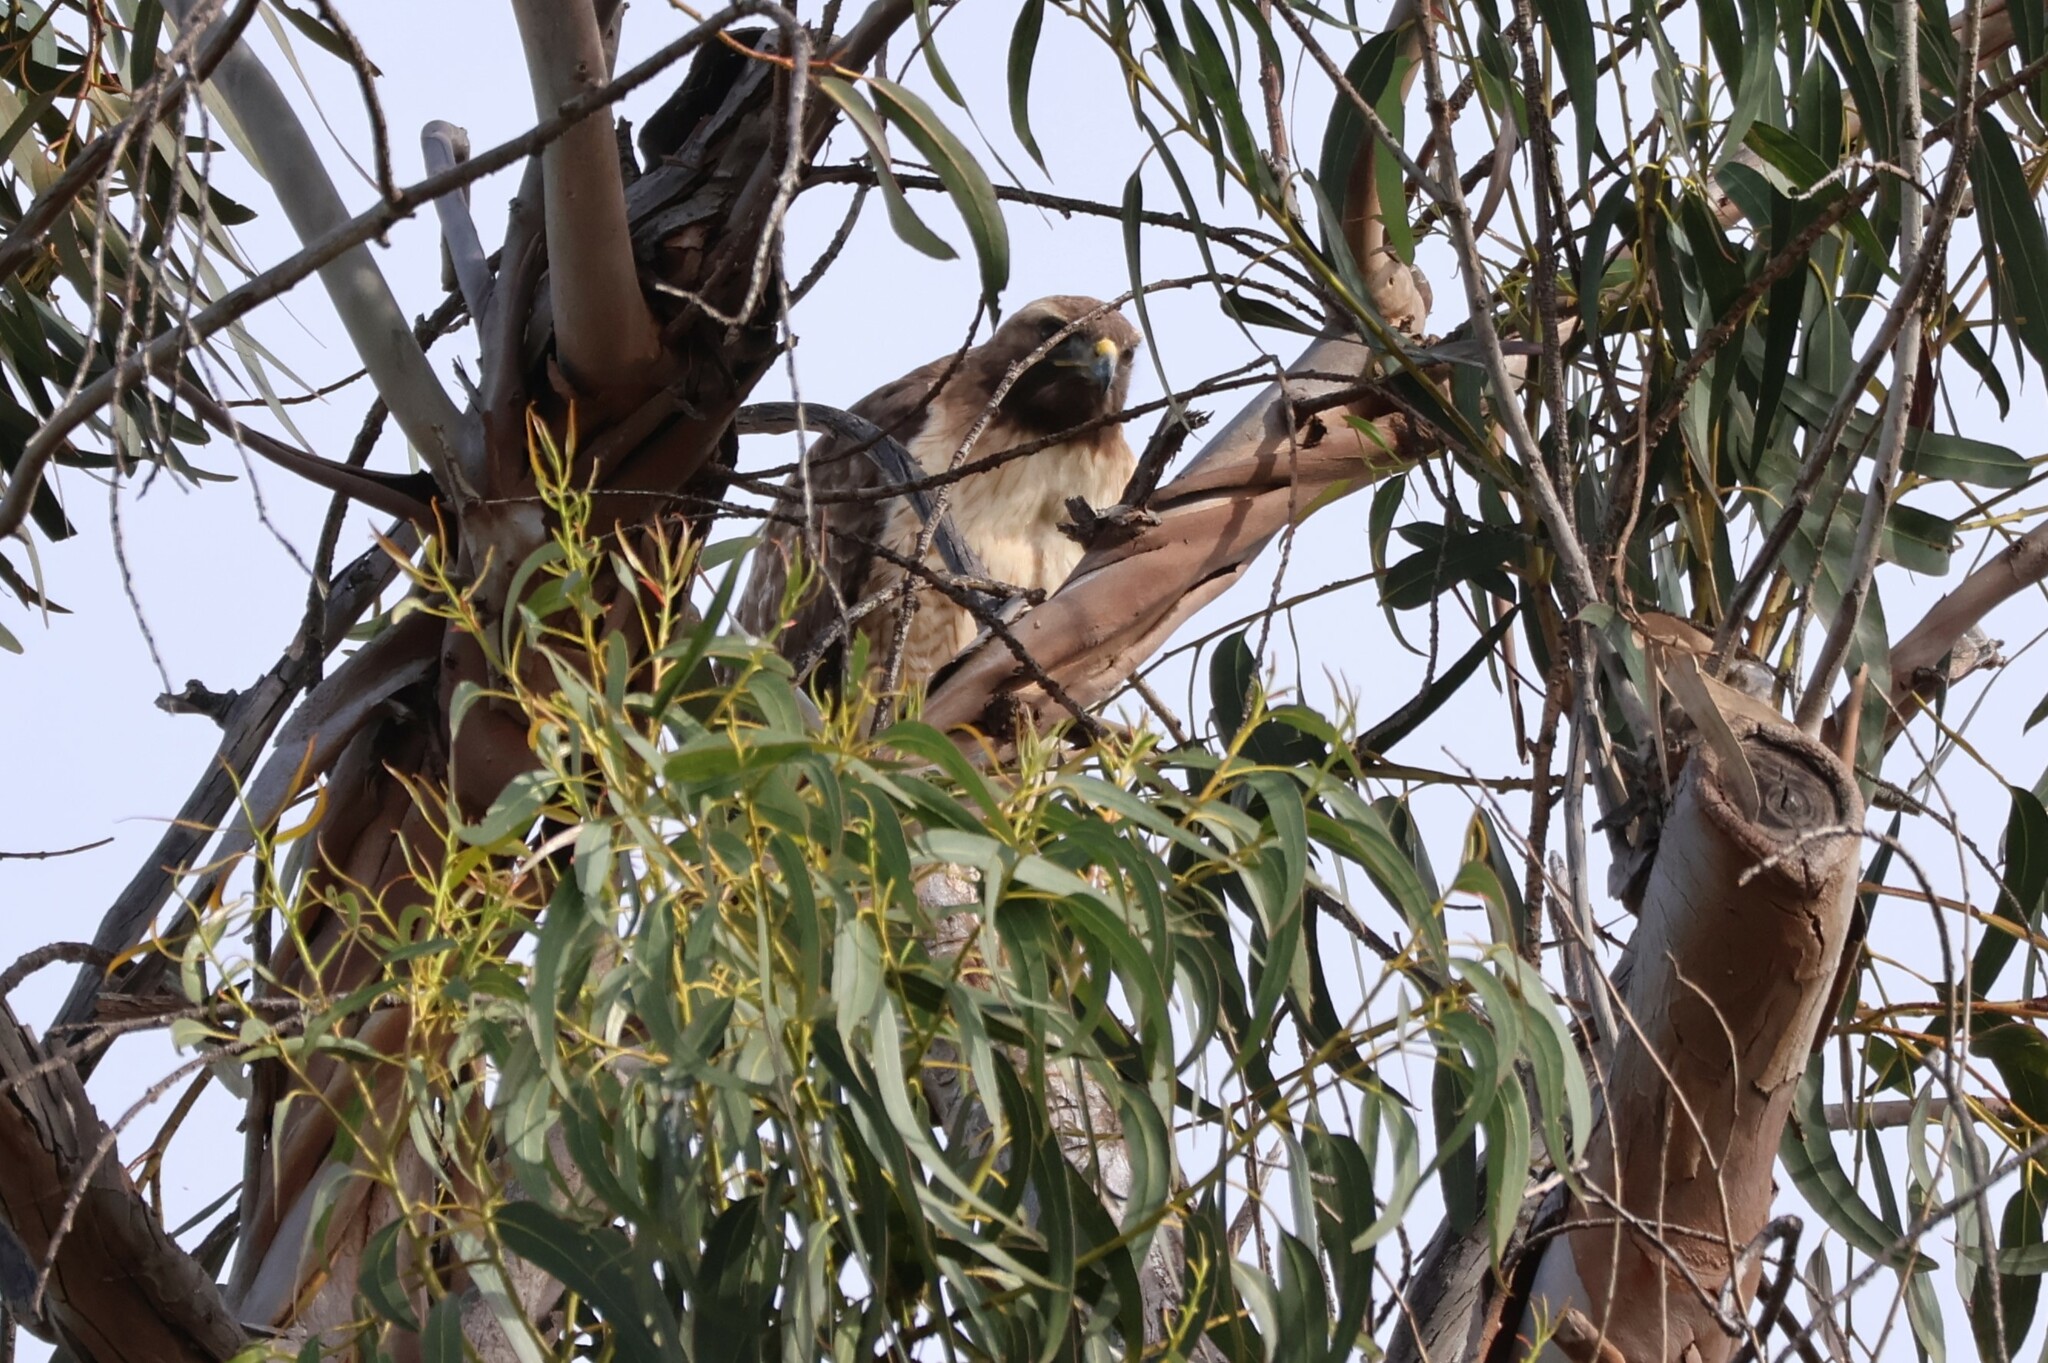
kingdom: Animalia
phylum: Chordata
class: Aves
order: Accipitriformes
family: Accipitridae
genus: Buteo
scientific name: Buteo jamaicensis
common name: Red-tailed hawk
